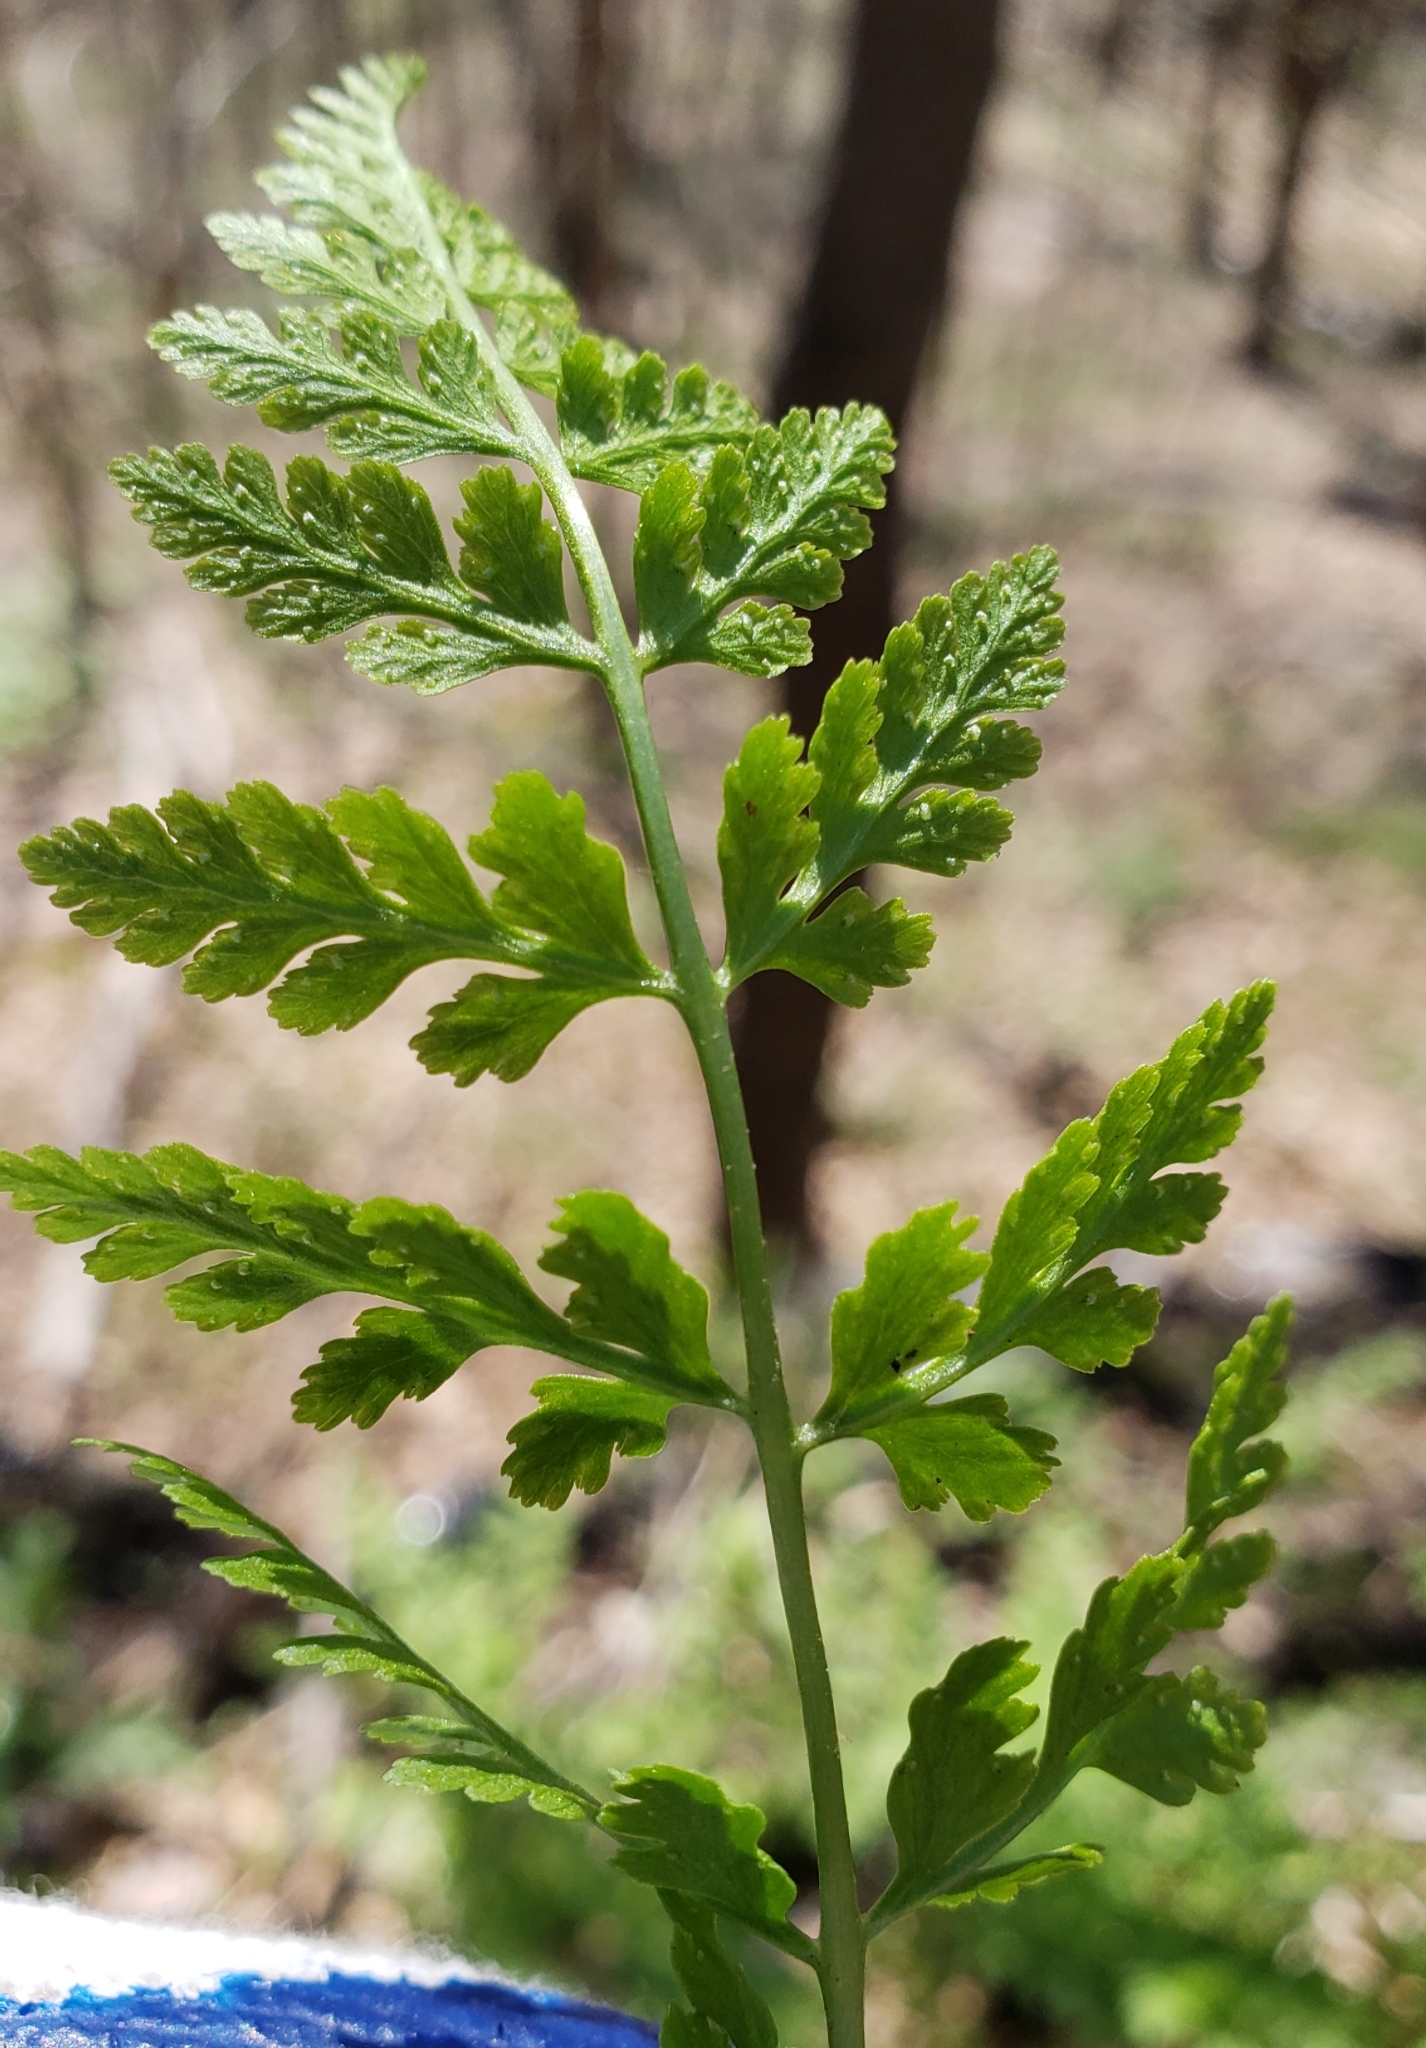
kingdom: Plantae
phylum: Tracheophyta
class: Polypodiopsida
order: Polypodiales
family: Cystopteridaceae
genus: Cystopteris
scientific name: Cystopteris fragilis
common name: Brittle bladder fern
